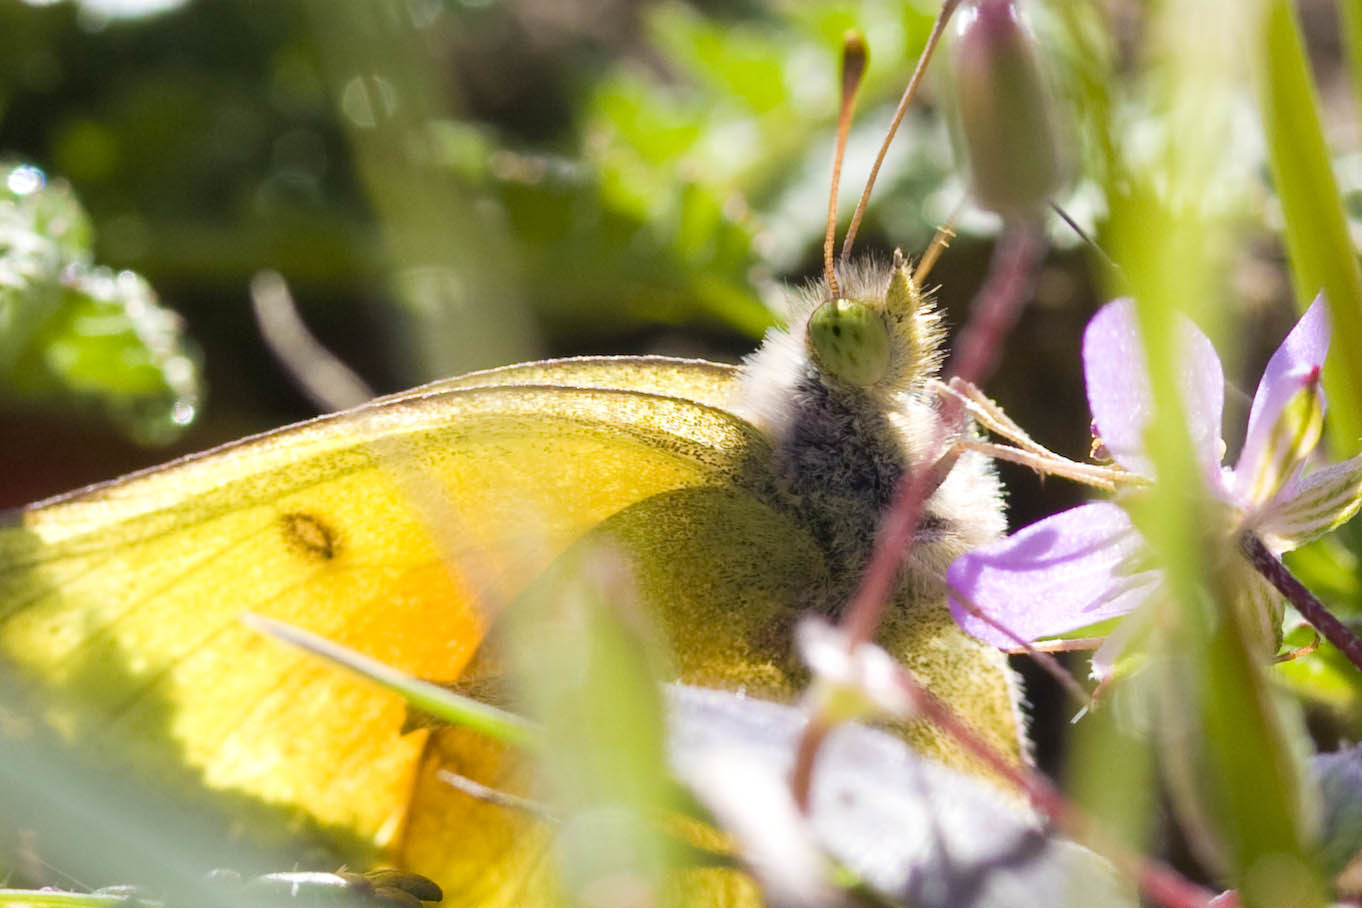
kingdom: Animalia
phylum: Arthropoda
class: Insecta
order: Lepidoptera
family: Pieridae
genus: Colias
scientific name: Colias eurytheme
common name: Alfalfa butterfly
